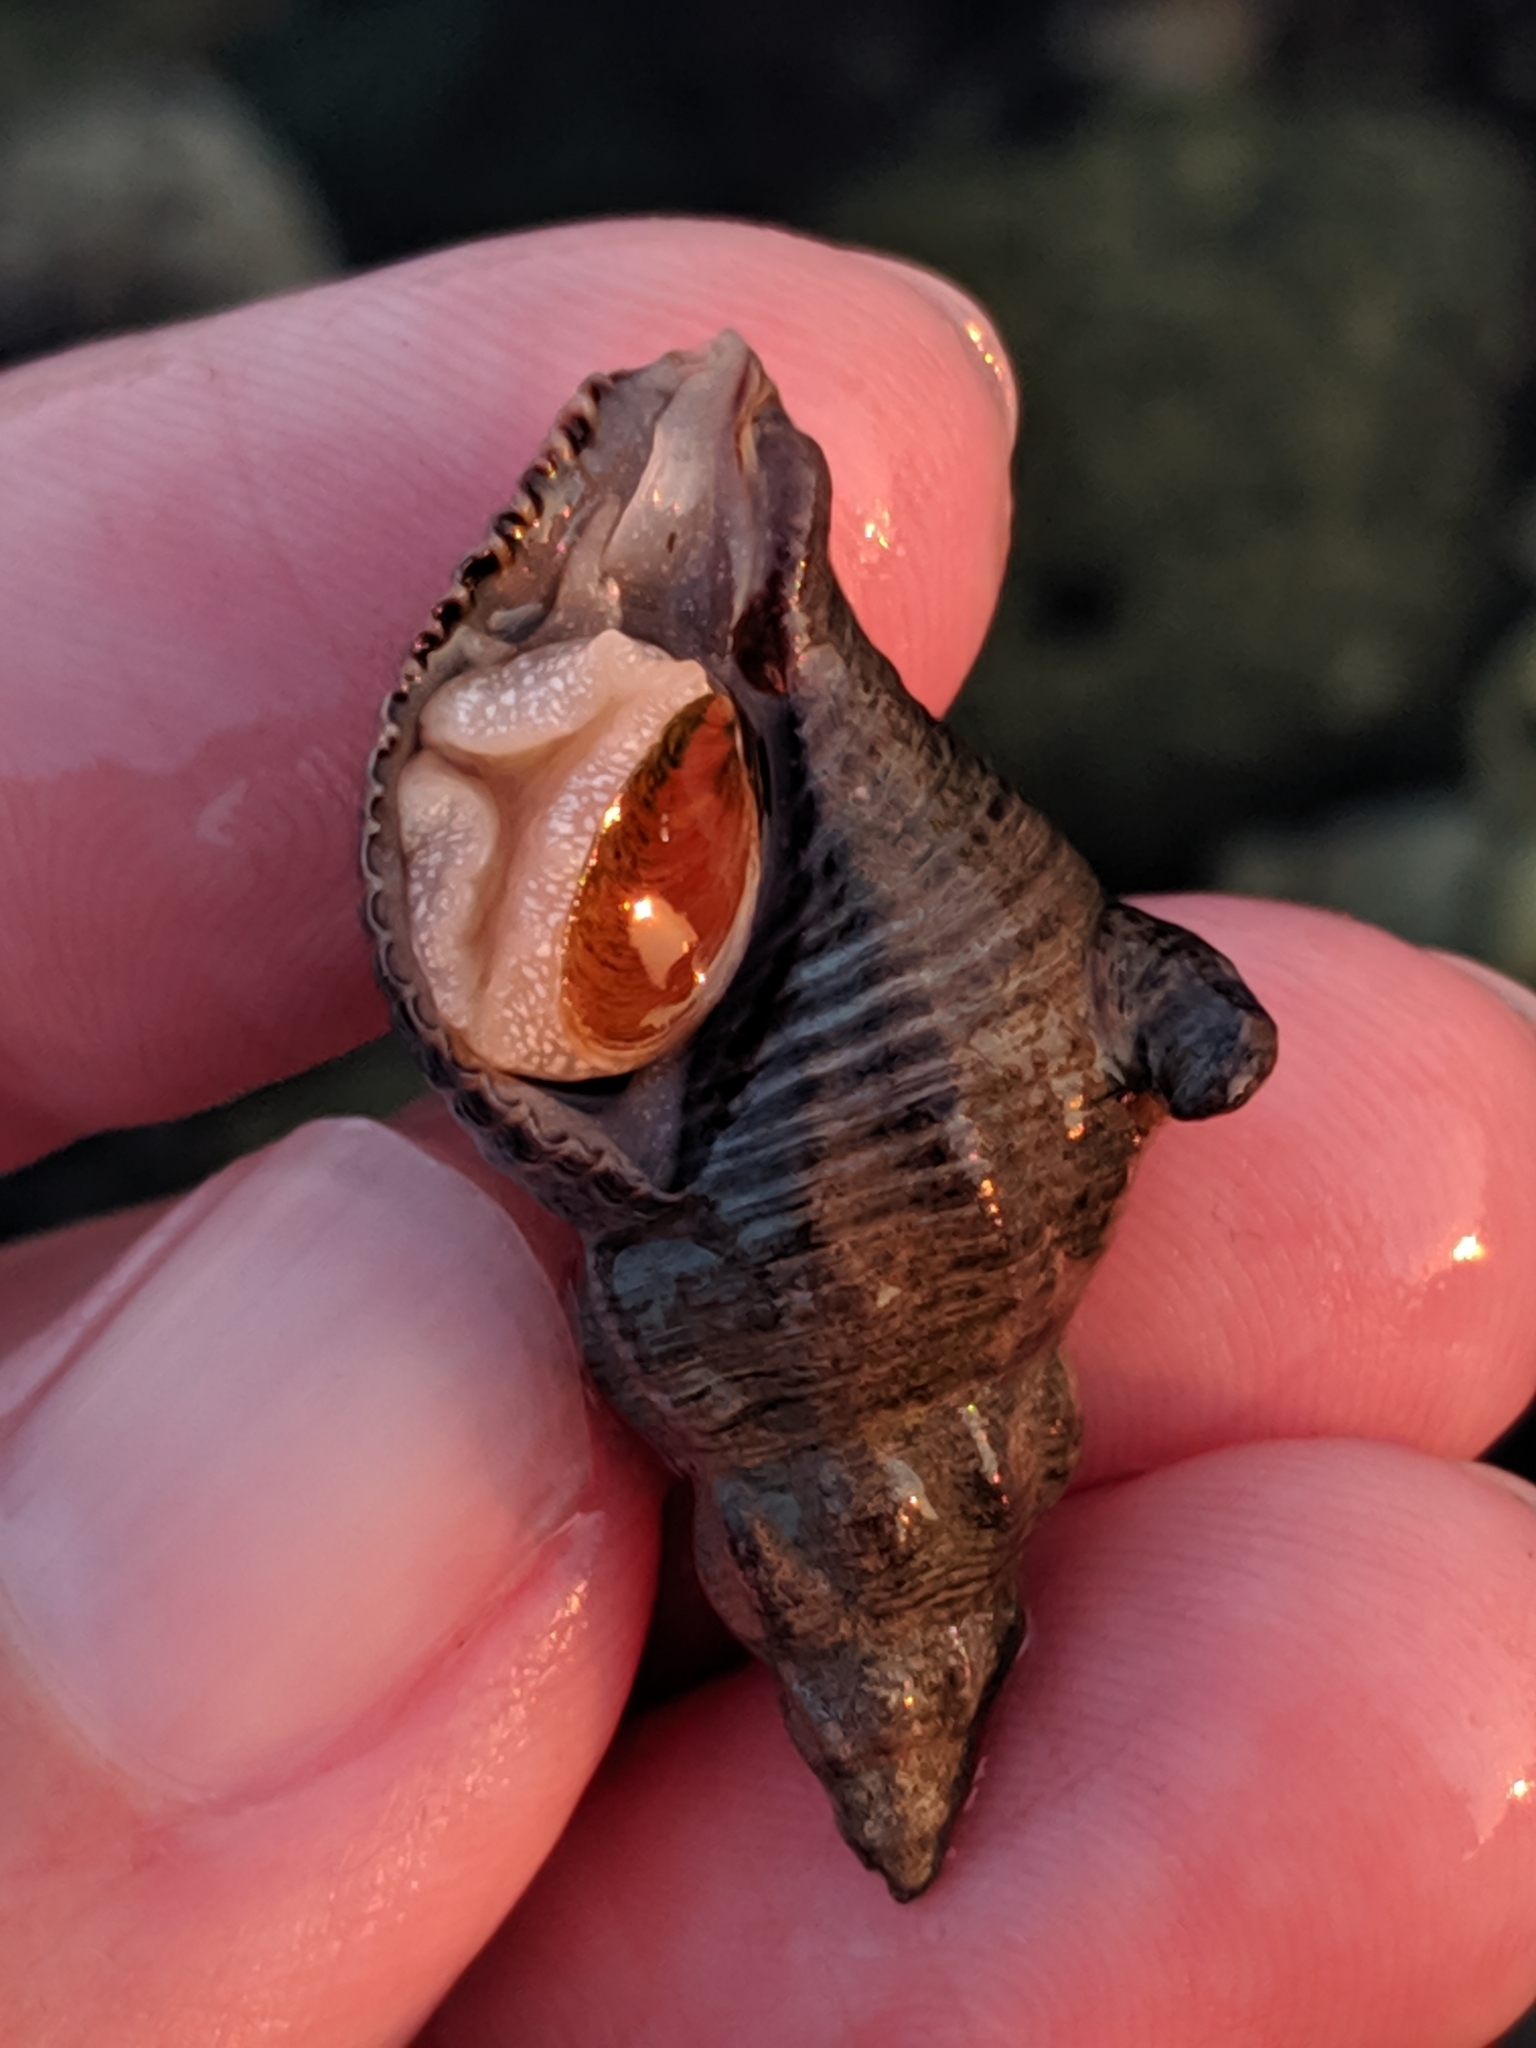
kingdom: Animalia
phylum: Mollusca
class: Gastropoda
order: Neogastropoda
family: Tudiclidae
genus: Lirabuccinum
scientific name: Lirabuccinum dirum
